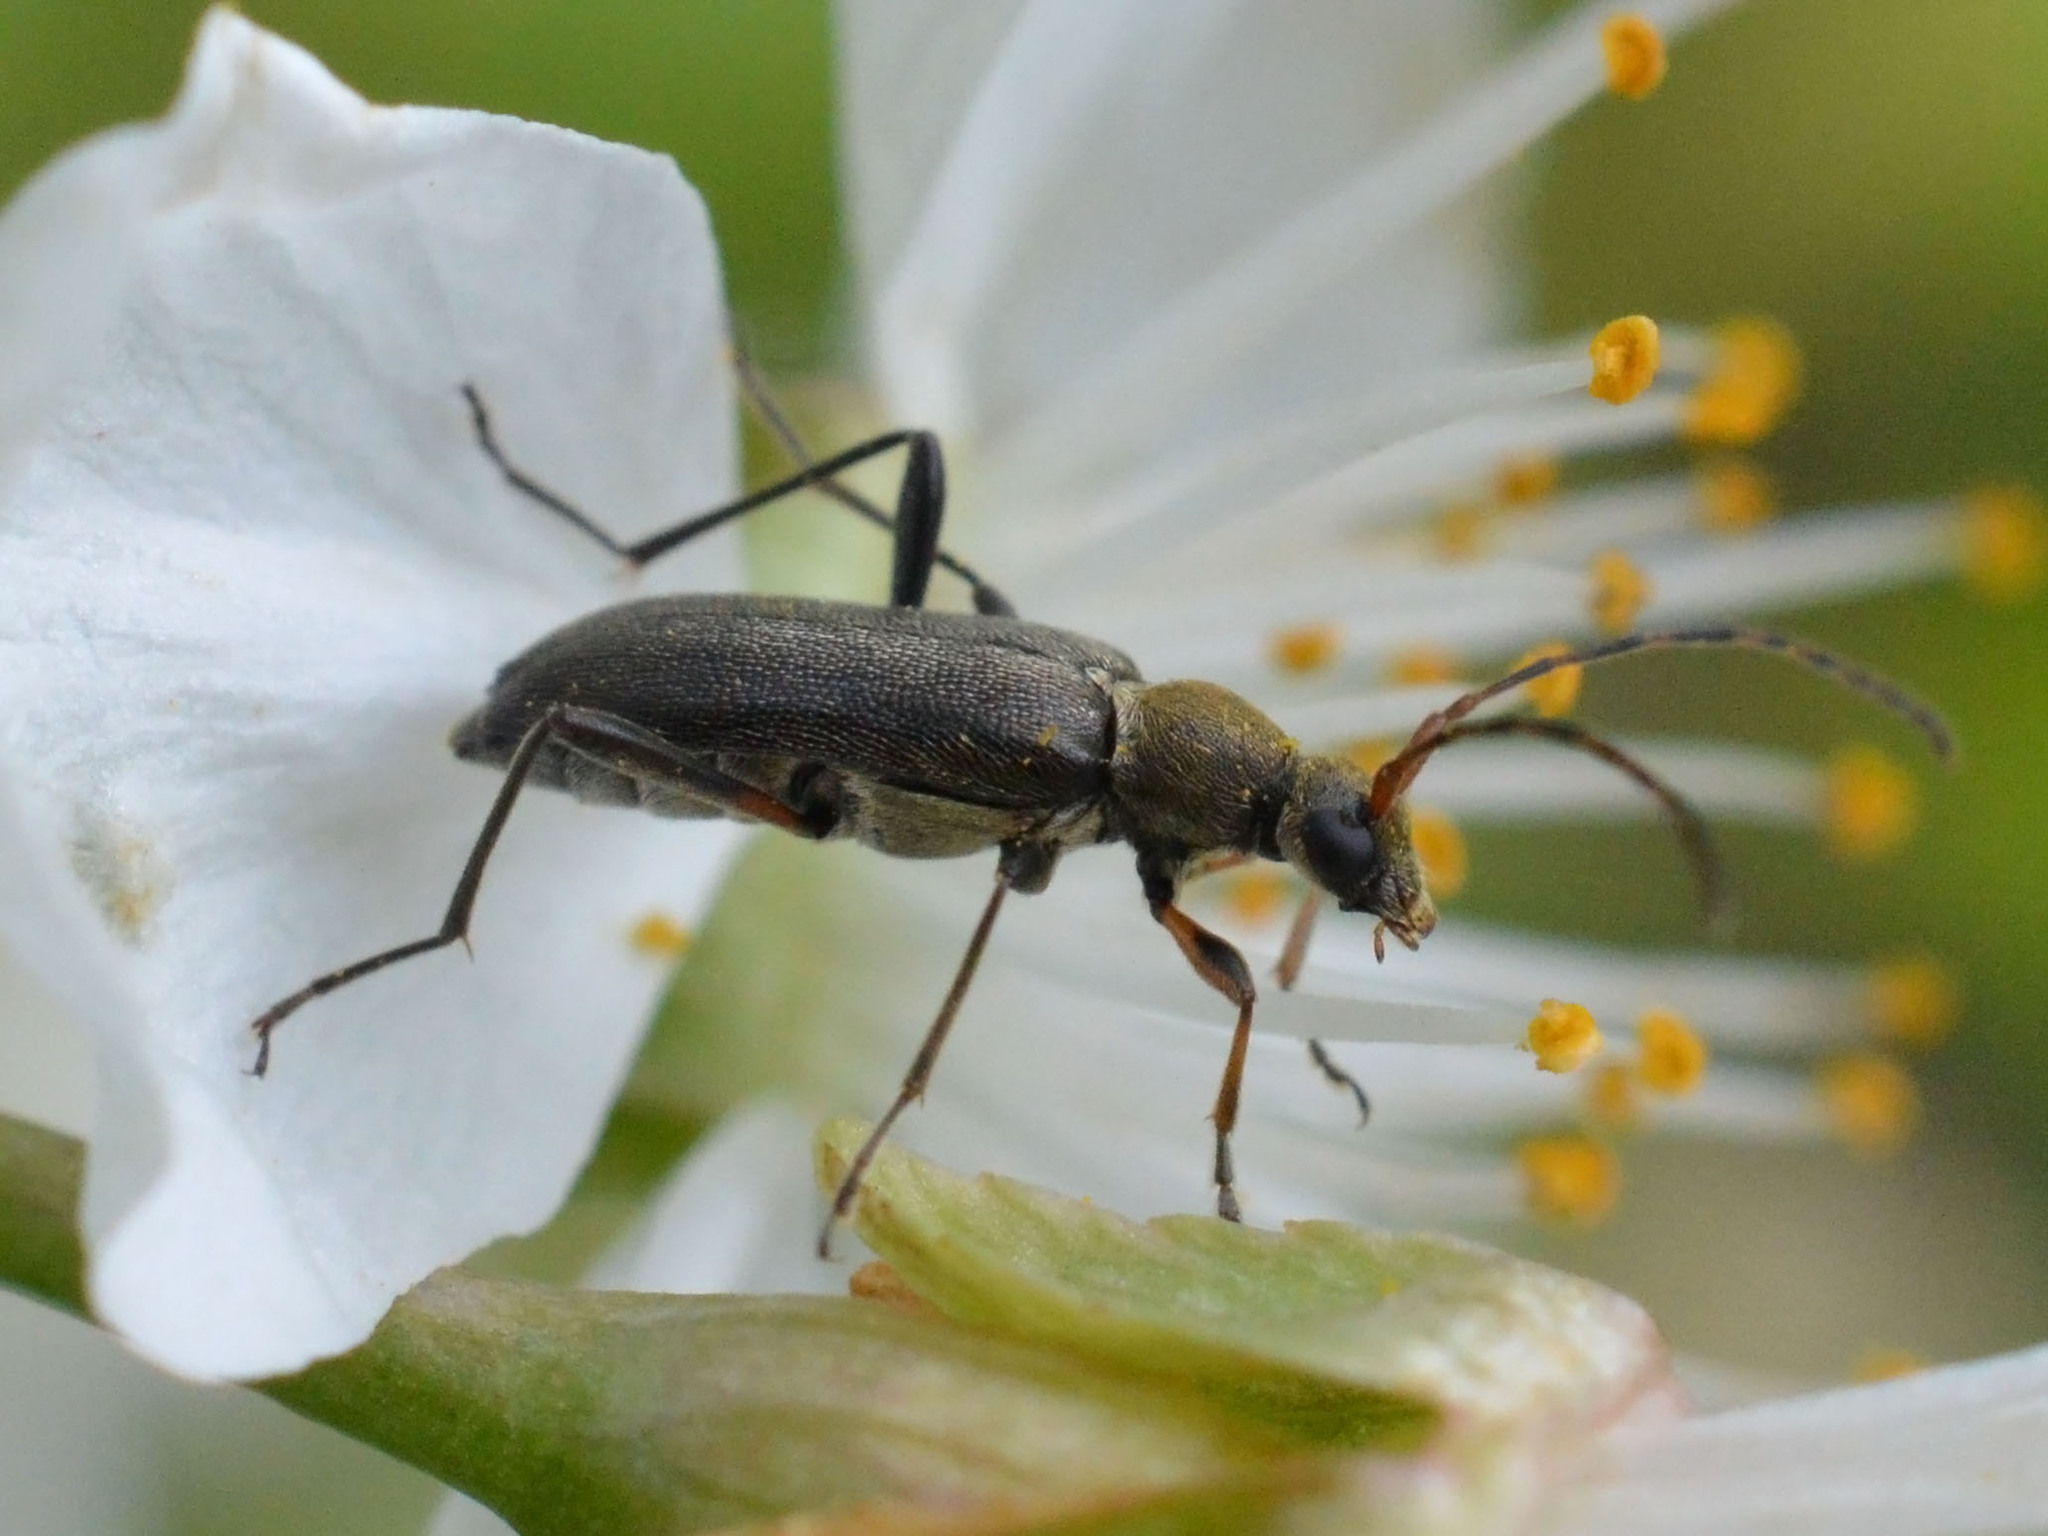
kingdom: Animalia
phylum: Arthropoda
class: Insecta
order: Coleoptera
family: Cerambycidae
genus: Grammoptera
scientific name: Grammoptera ruficornis
